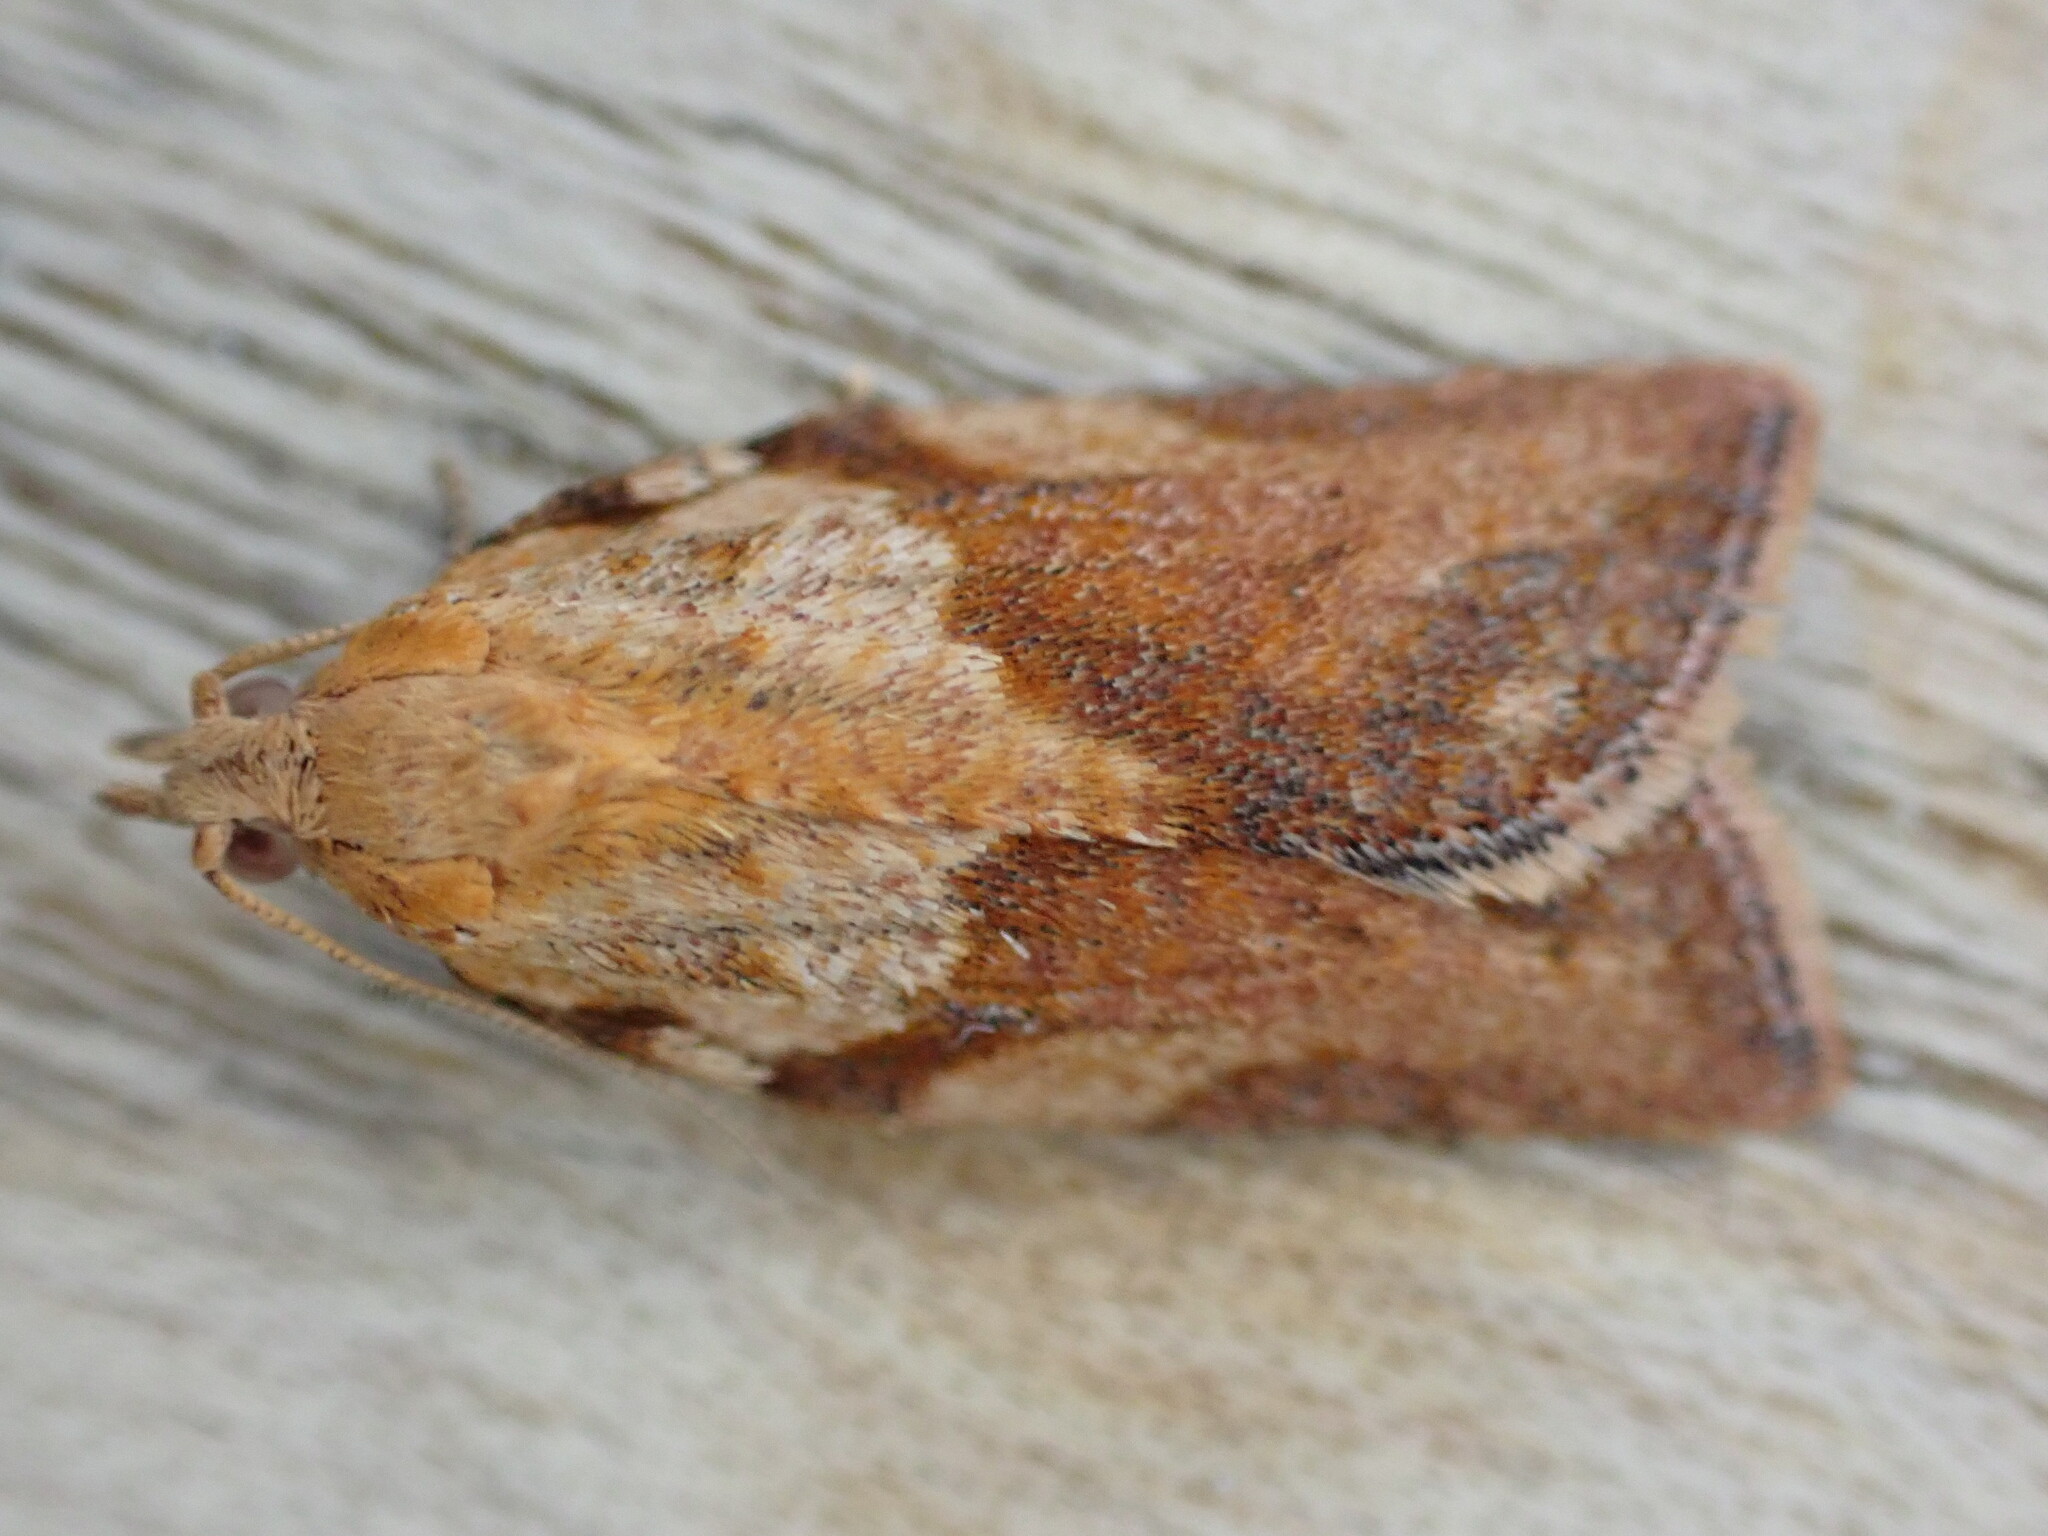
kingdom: Animalia
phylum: Arthropoda
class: Insecta
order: Lepidoptera
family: Tortricidae
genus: Epiphyas
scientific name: Epiphyas postvittana
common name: Light brown apple moth
